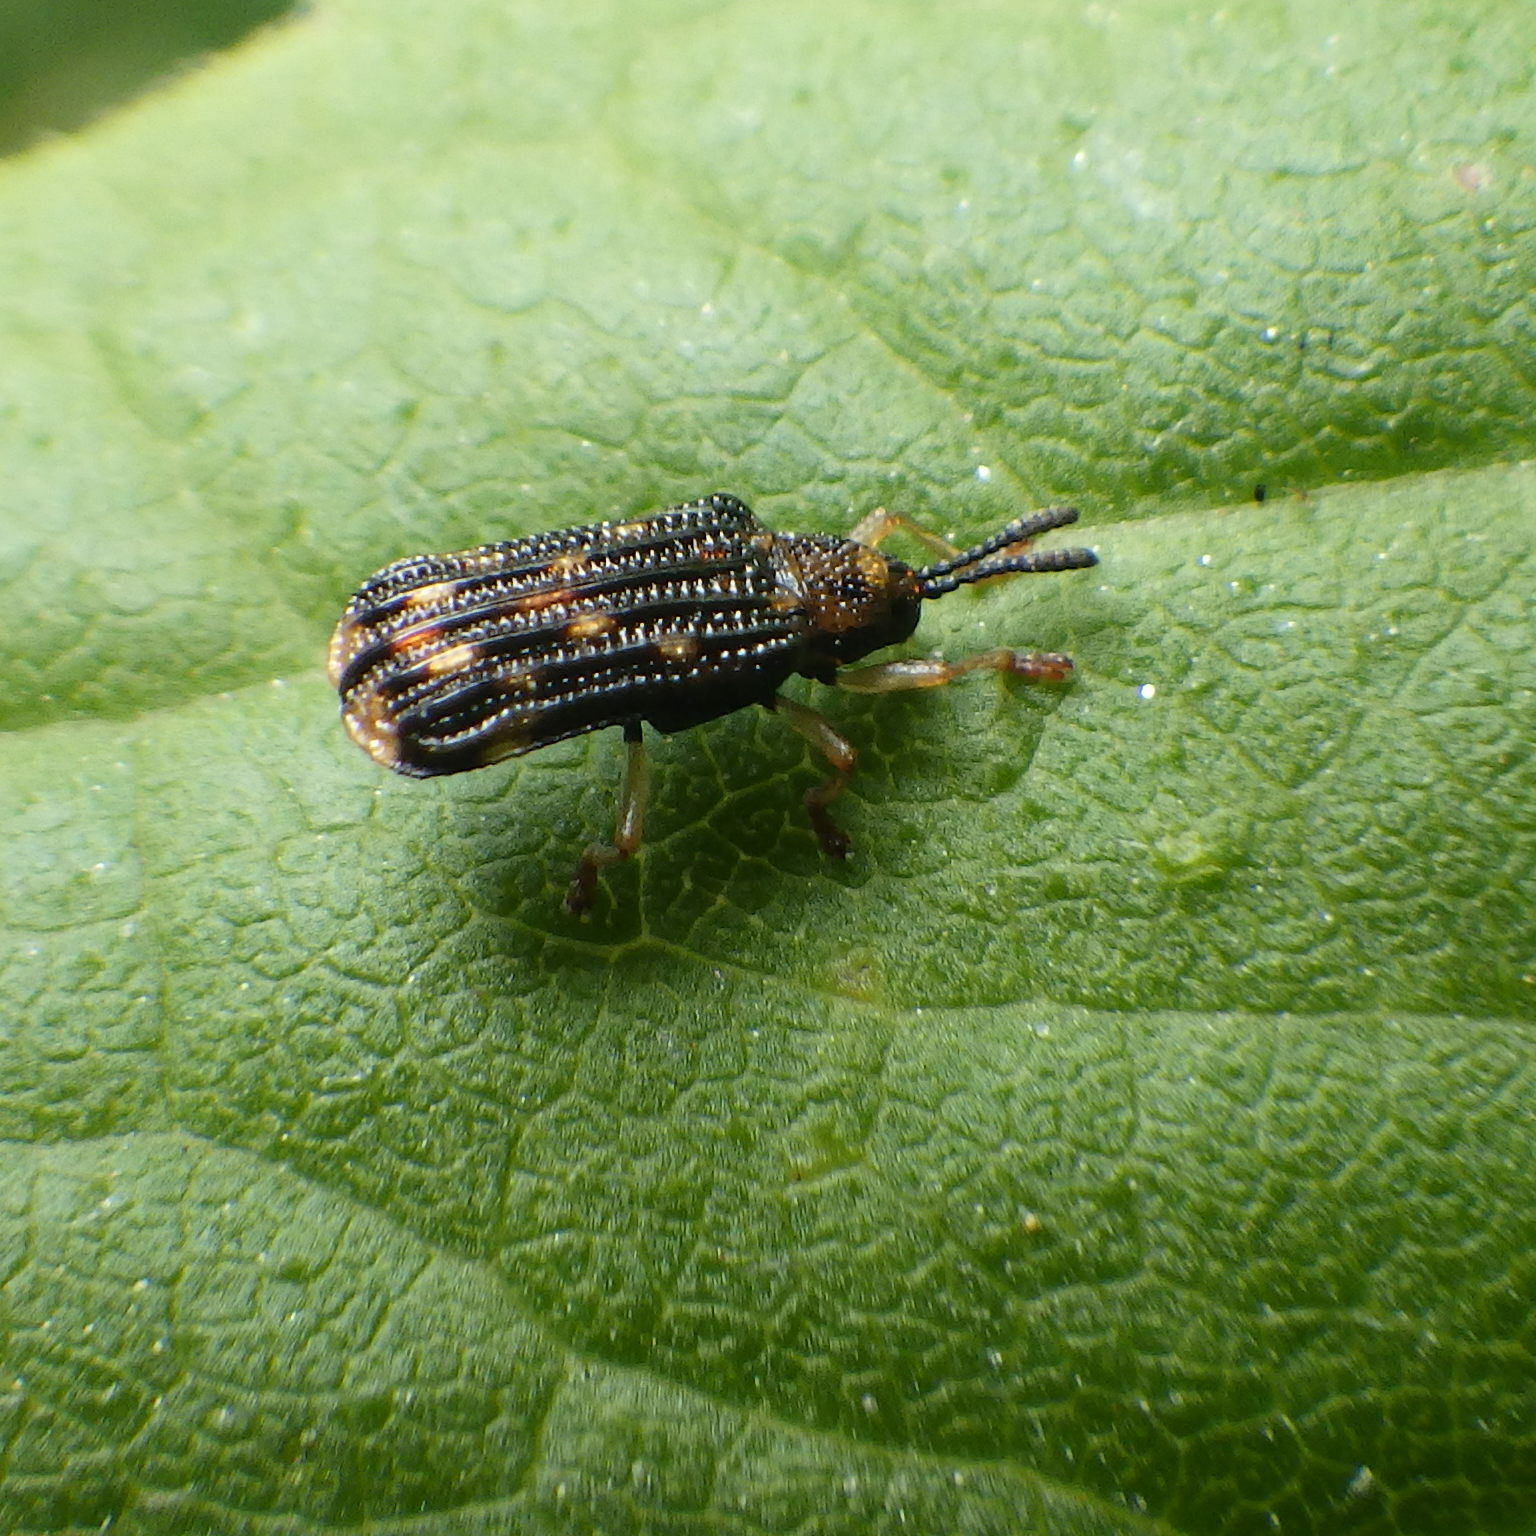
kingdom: Animalia
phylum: Arthropoda
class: Insecta
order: Coleoptera
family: Chrysomelidae
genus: Sumitrosis
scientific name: Sumitrosis inaequalis
